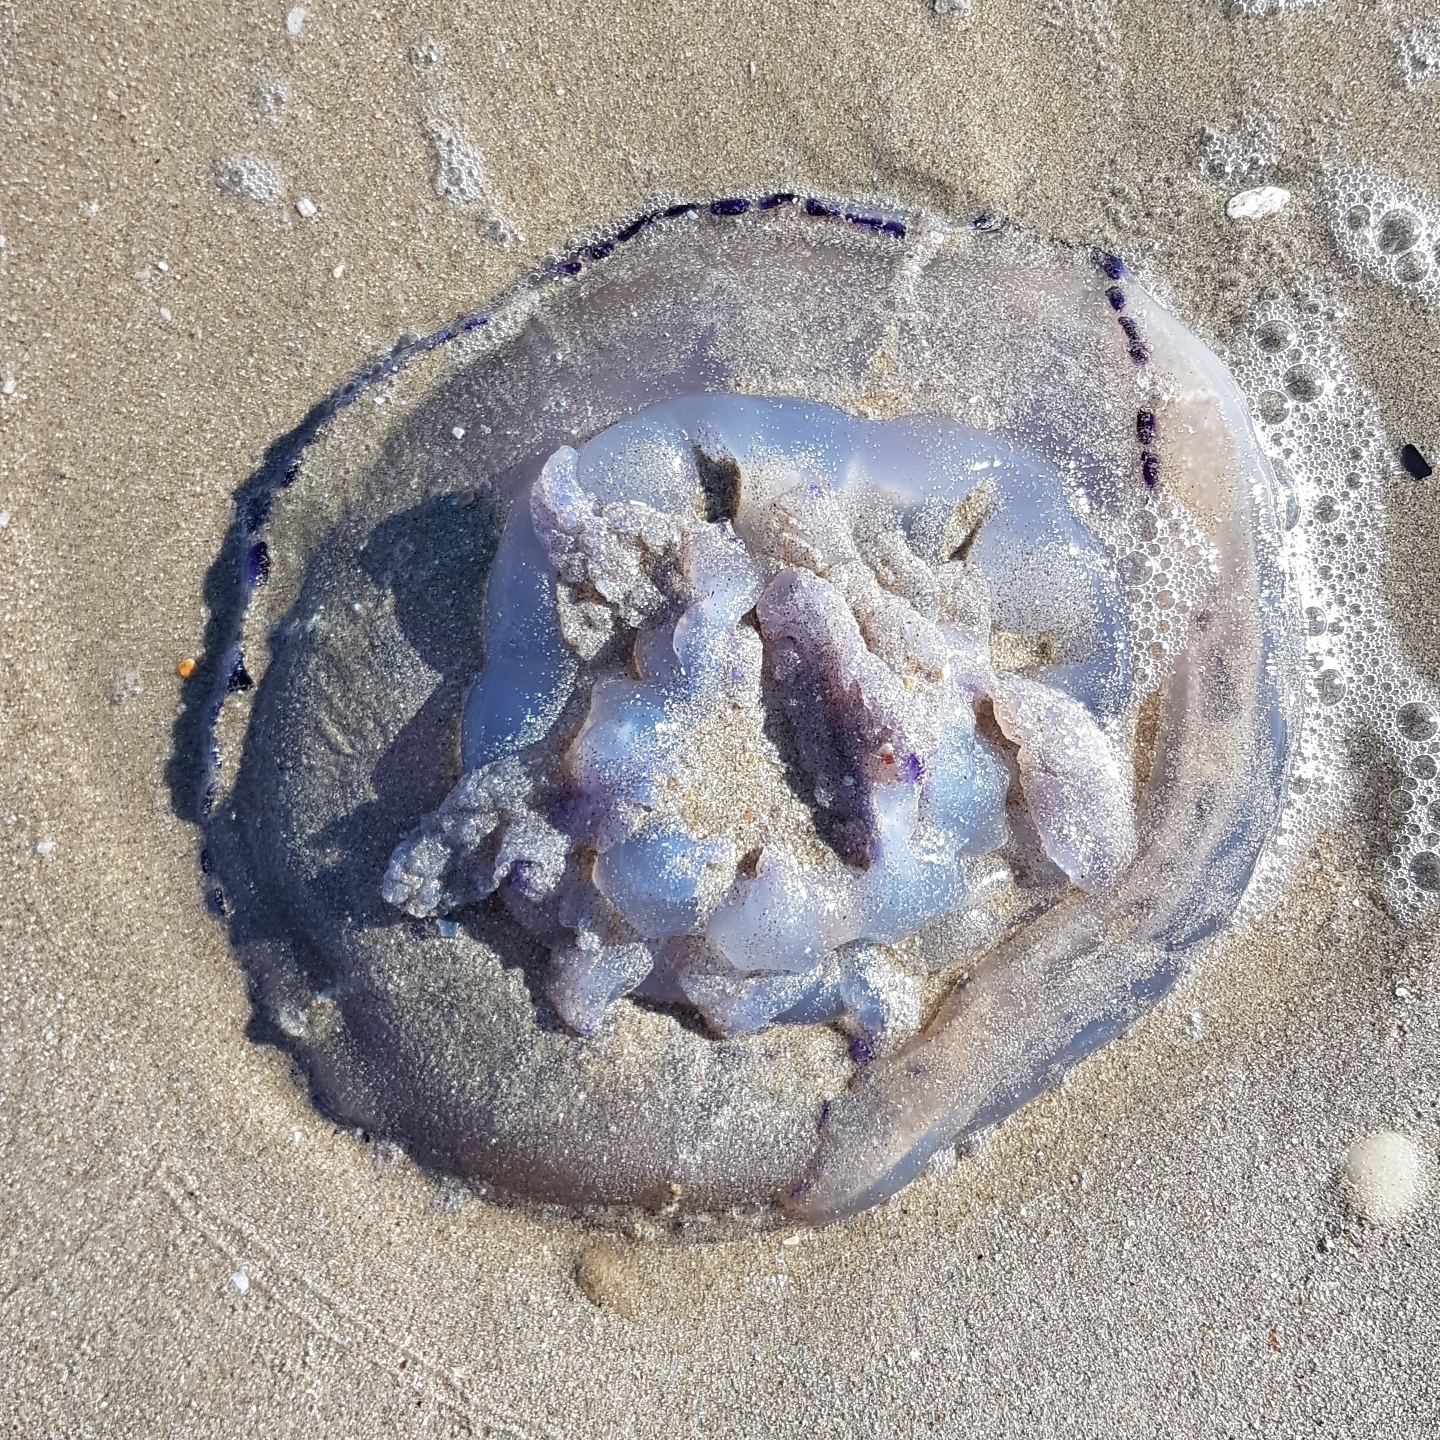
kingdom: Animalia
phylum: Cnidaria
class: Scyphozoa
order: Rhizostomeae
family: Rhizostomatidae
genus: Rhizostoma
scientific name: Rhizostoma pulmo
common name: Barrel jellyfish
